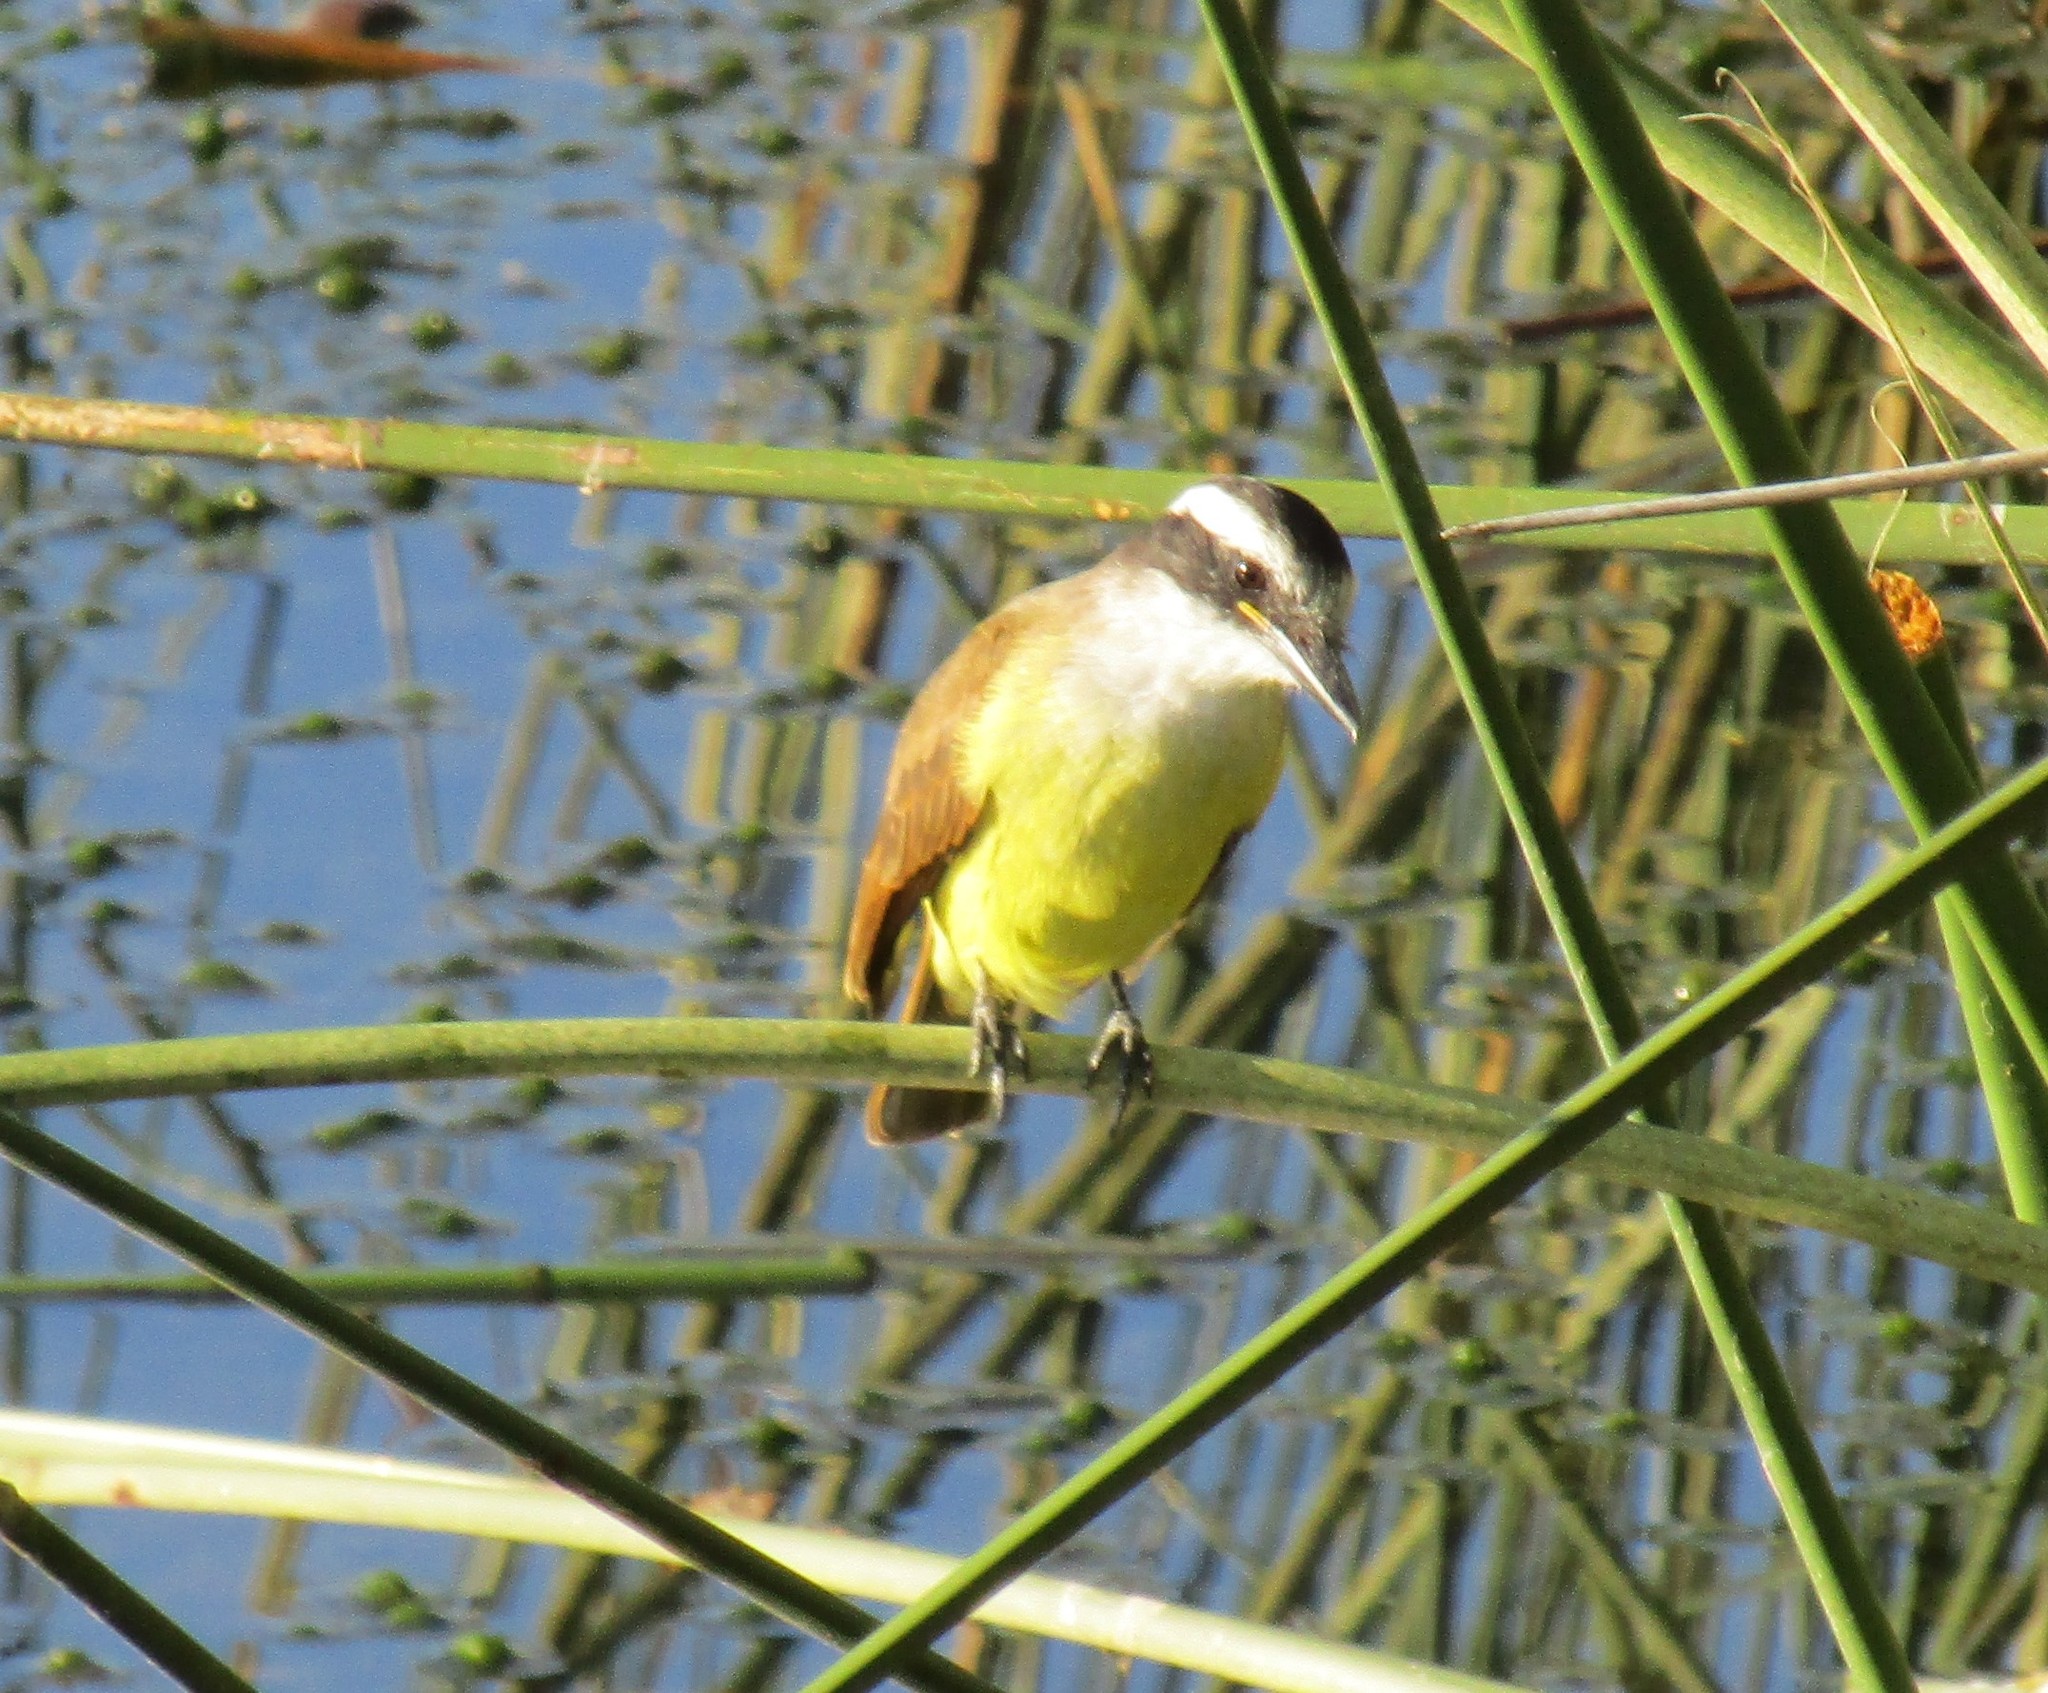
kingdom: Animalia
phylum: Chordata
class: Aves
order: Passeriformes
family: Tyrannidae
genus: Pitangus
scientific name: Pitangus sulphuratus
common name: Great kiskadee
